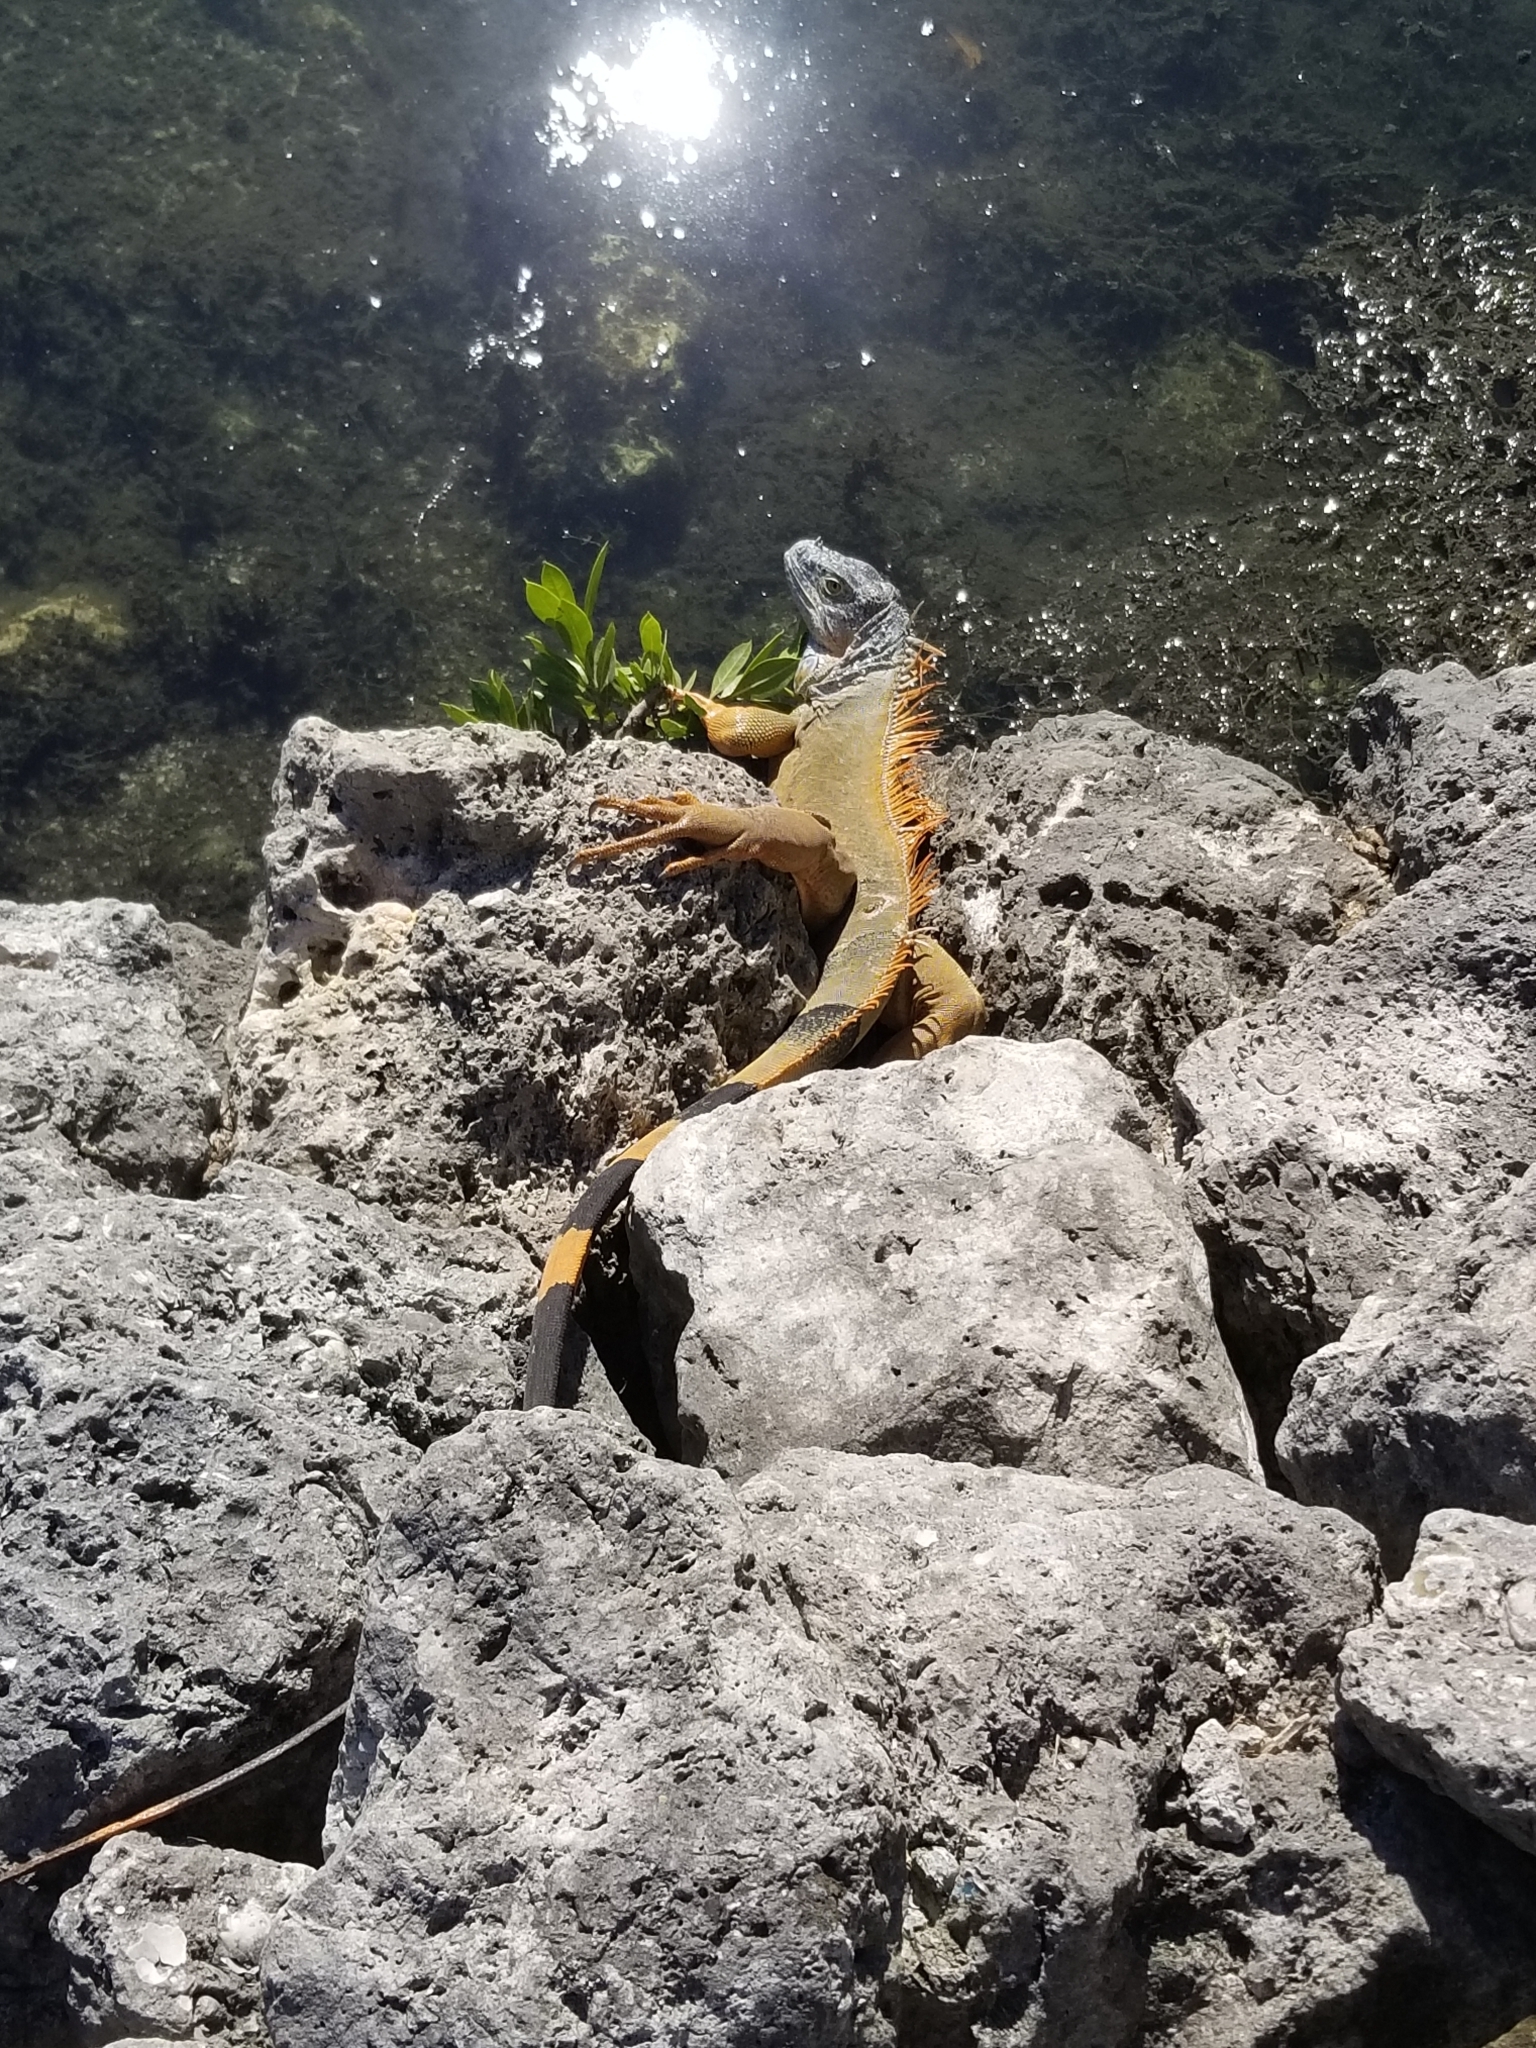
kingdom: Animalia
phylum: Chordata
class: Squamata
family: Iguanidae
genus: Iguana
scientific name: Iguana iguana
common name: Green iguana
